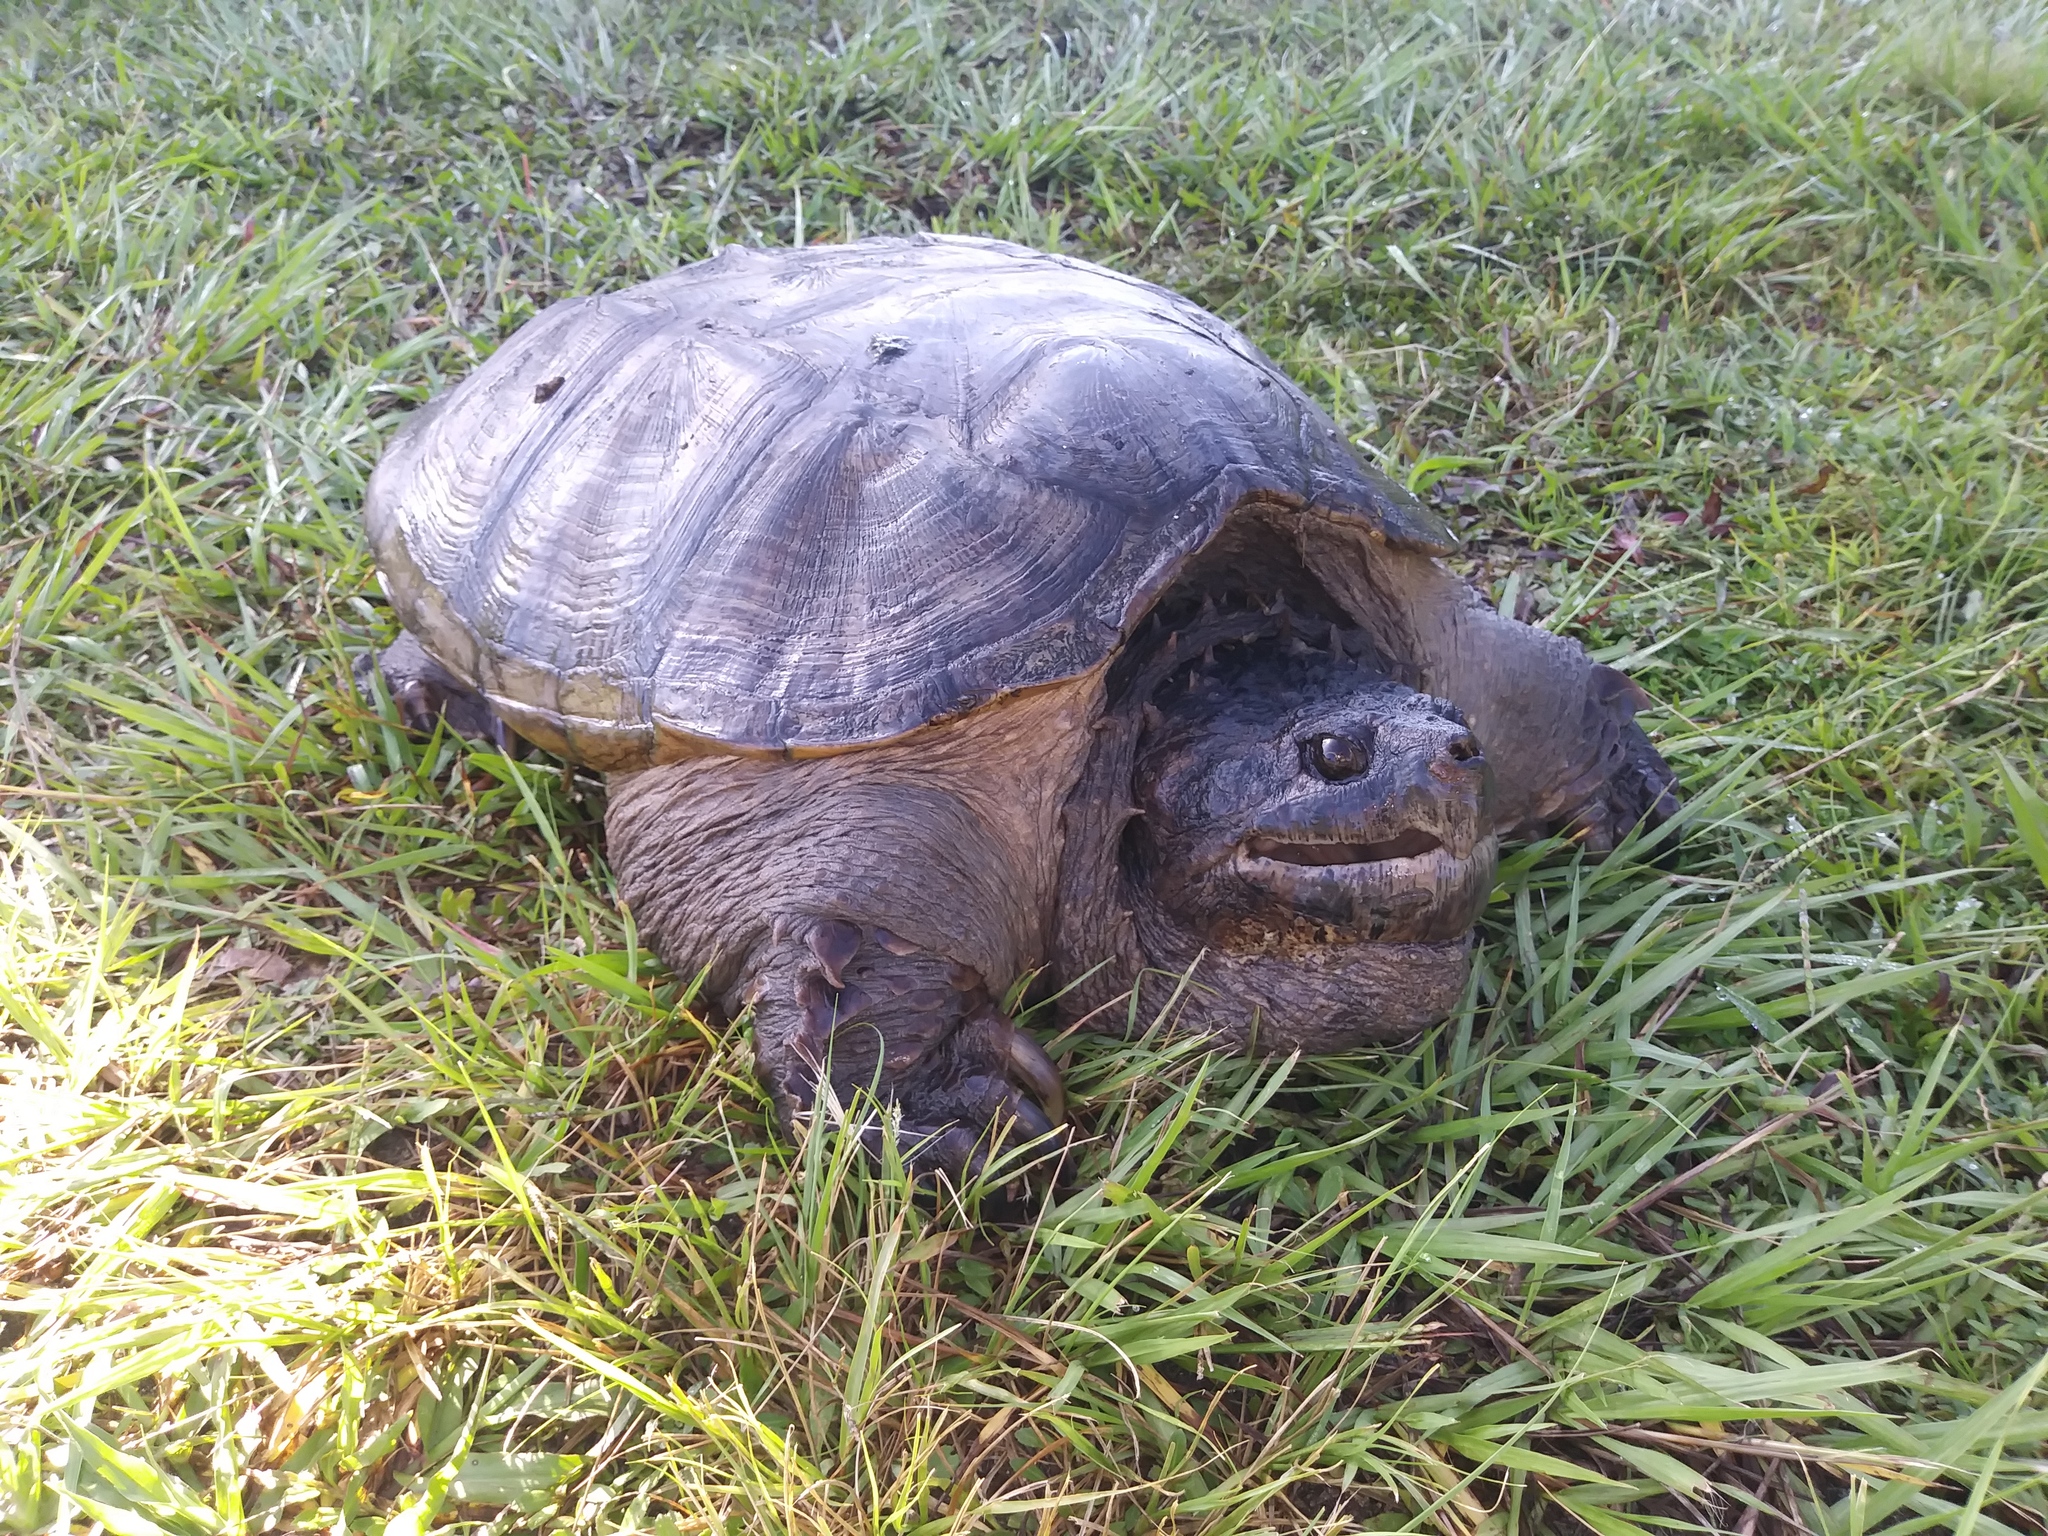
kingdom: Animalia
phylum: Chordata
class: Testudines
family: Chelydridae
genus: Chelydra
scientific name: Chelydra serpentina
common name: Common snapping turtle
